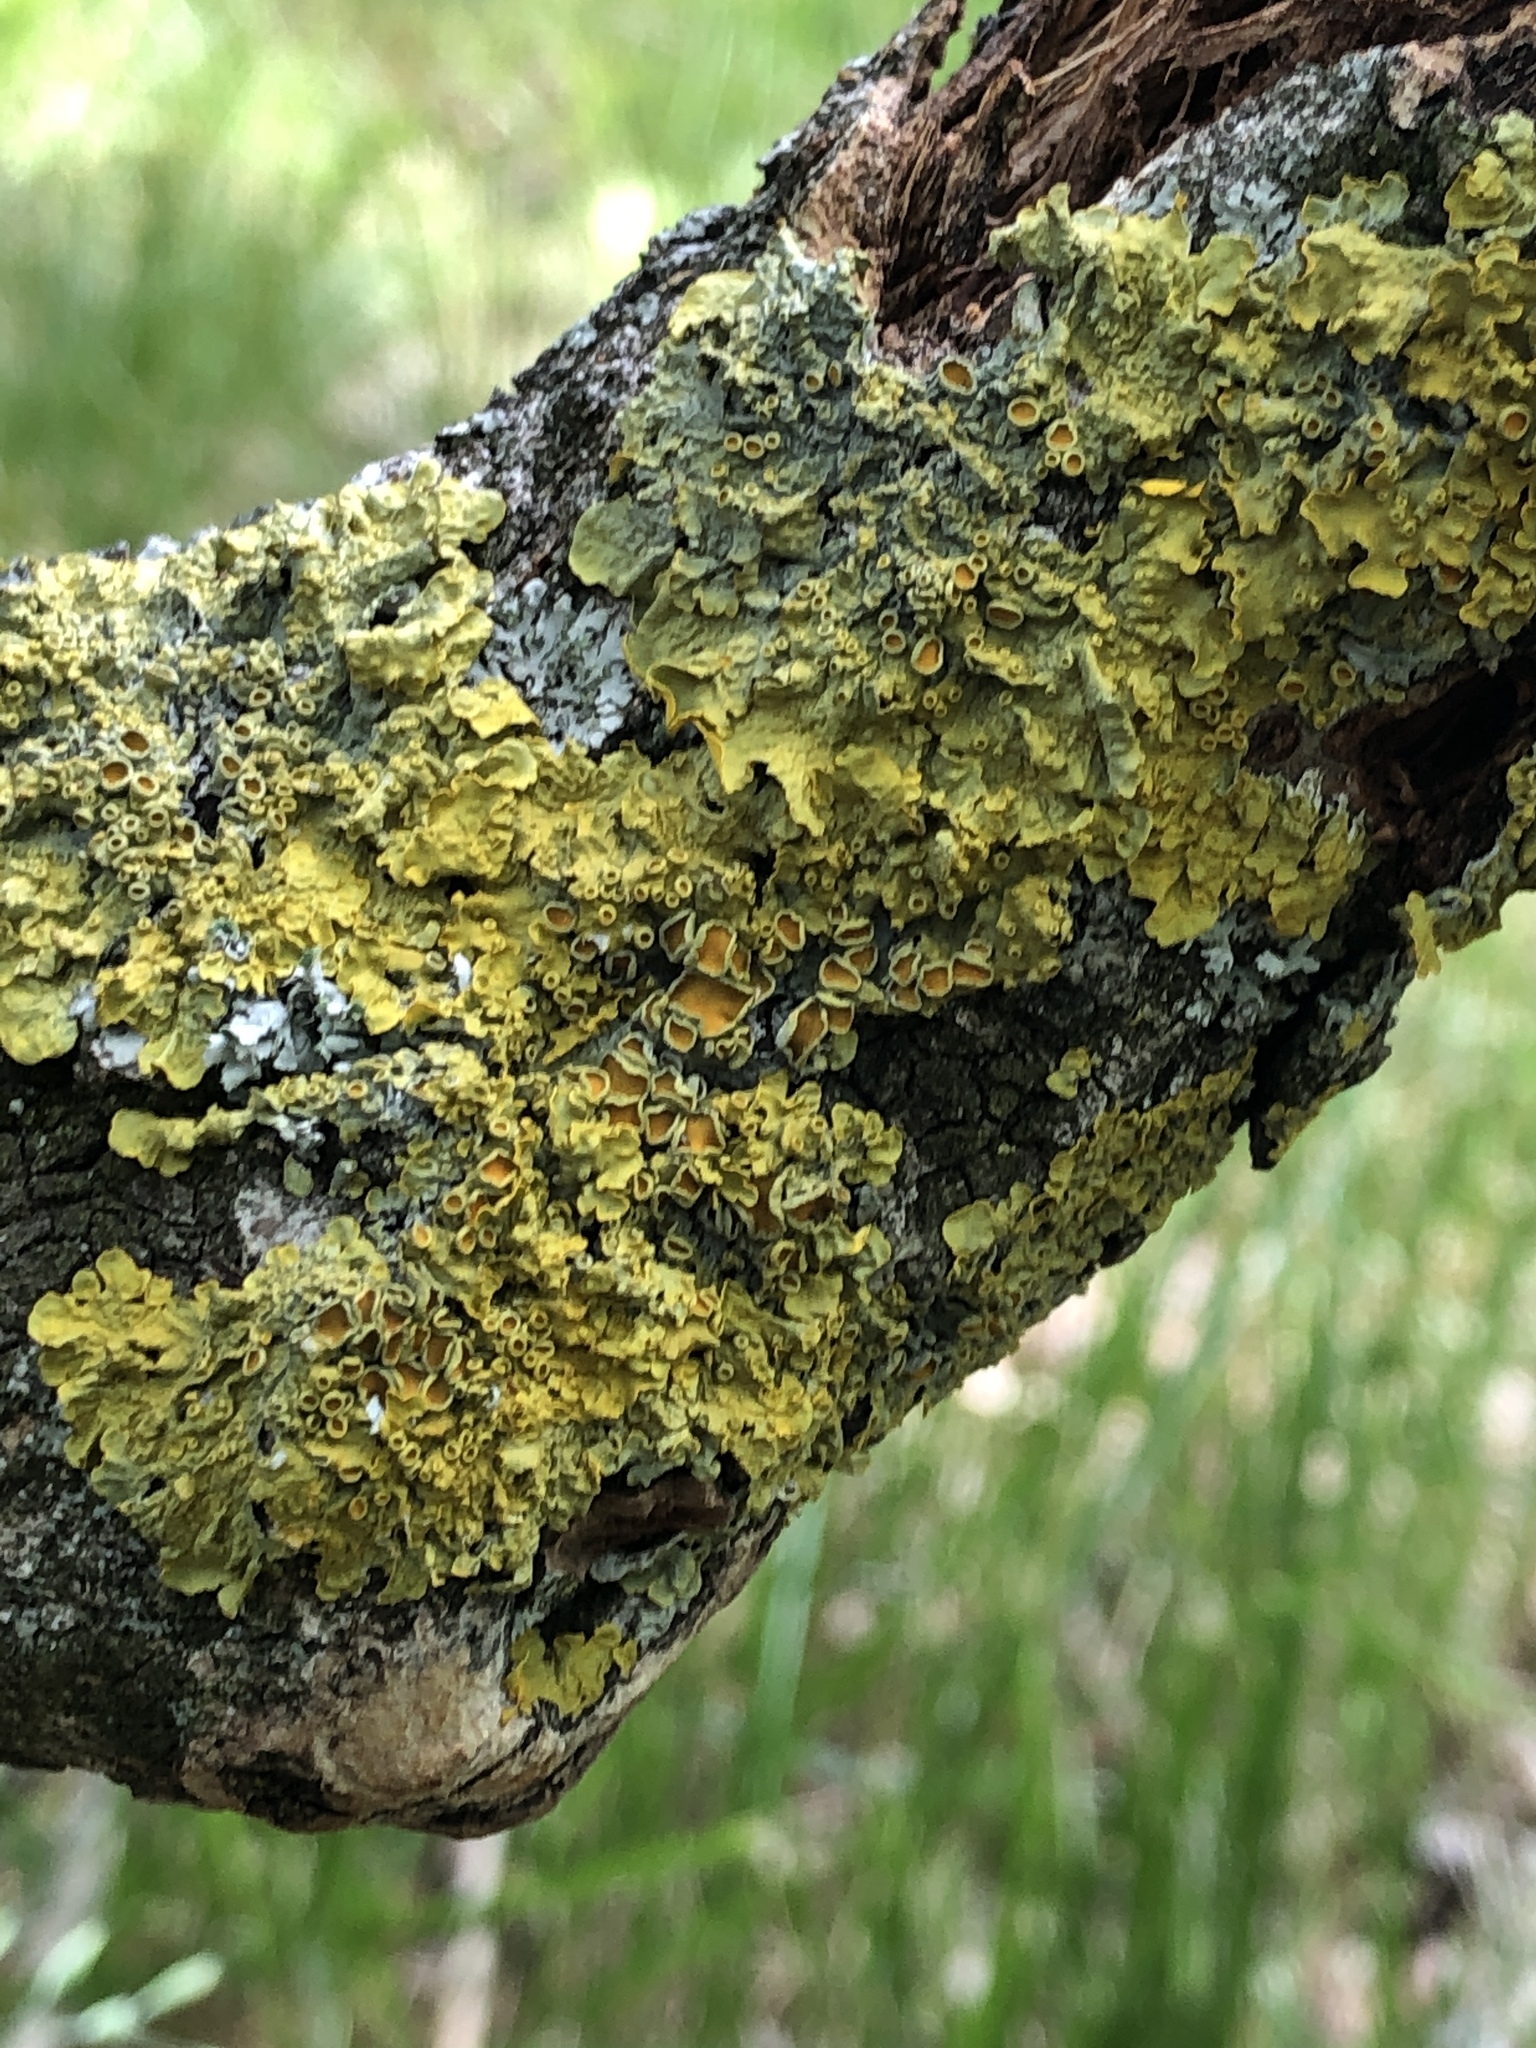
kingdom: Fungi
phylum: Ascomycota
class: Lecanoromycetes
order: Teloschistales
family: Teloschistaceae
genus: Xanthoria
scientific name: Xanthoria parietina
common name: Common orange lichen
